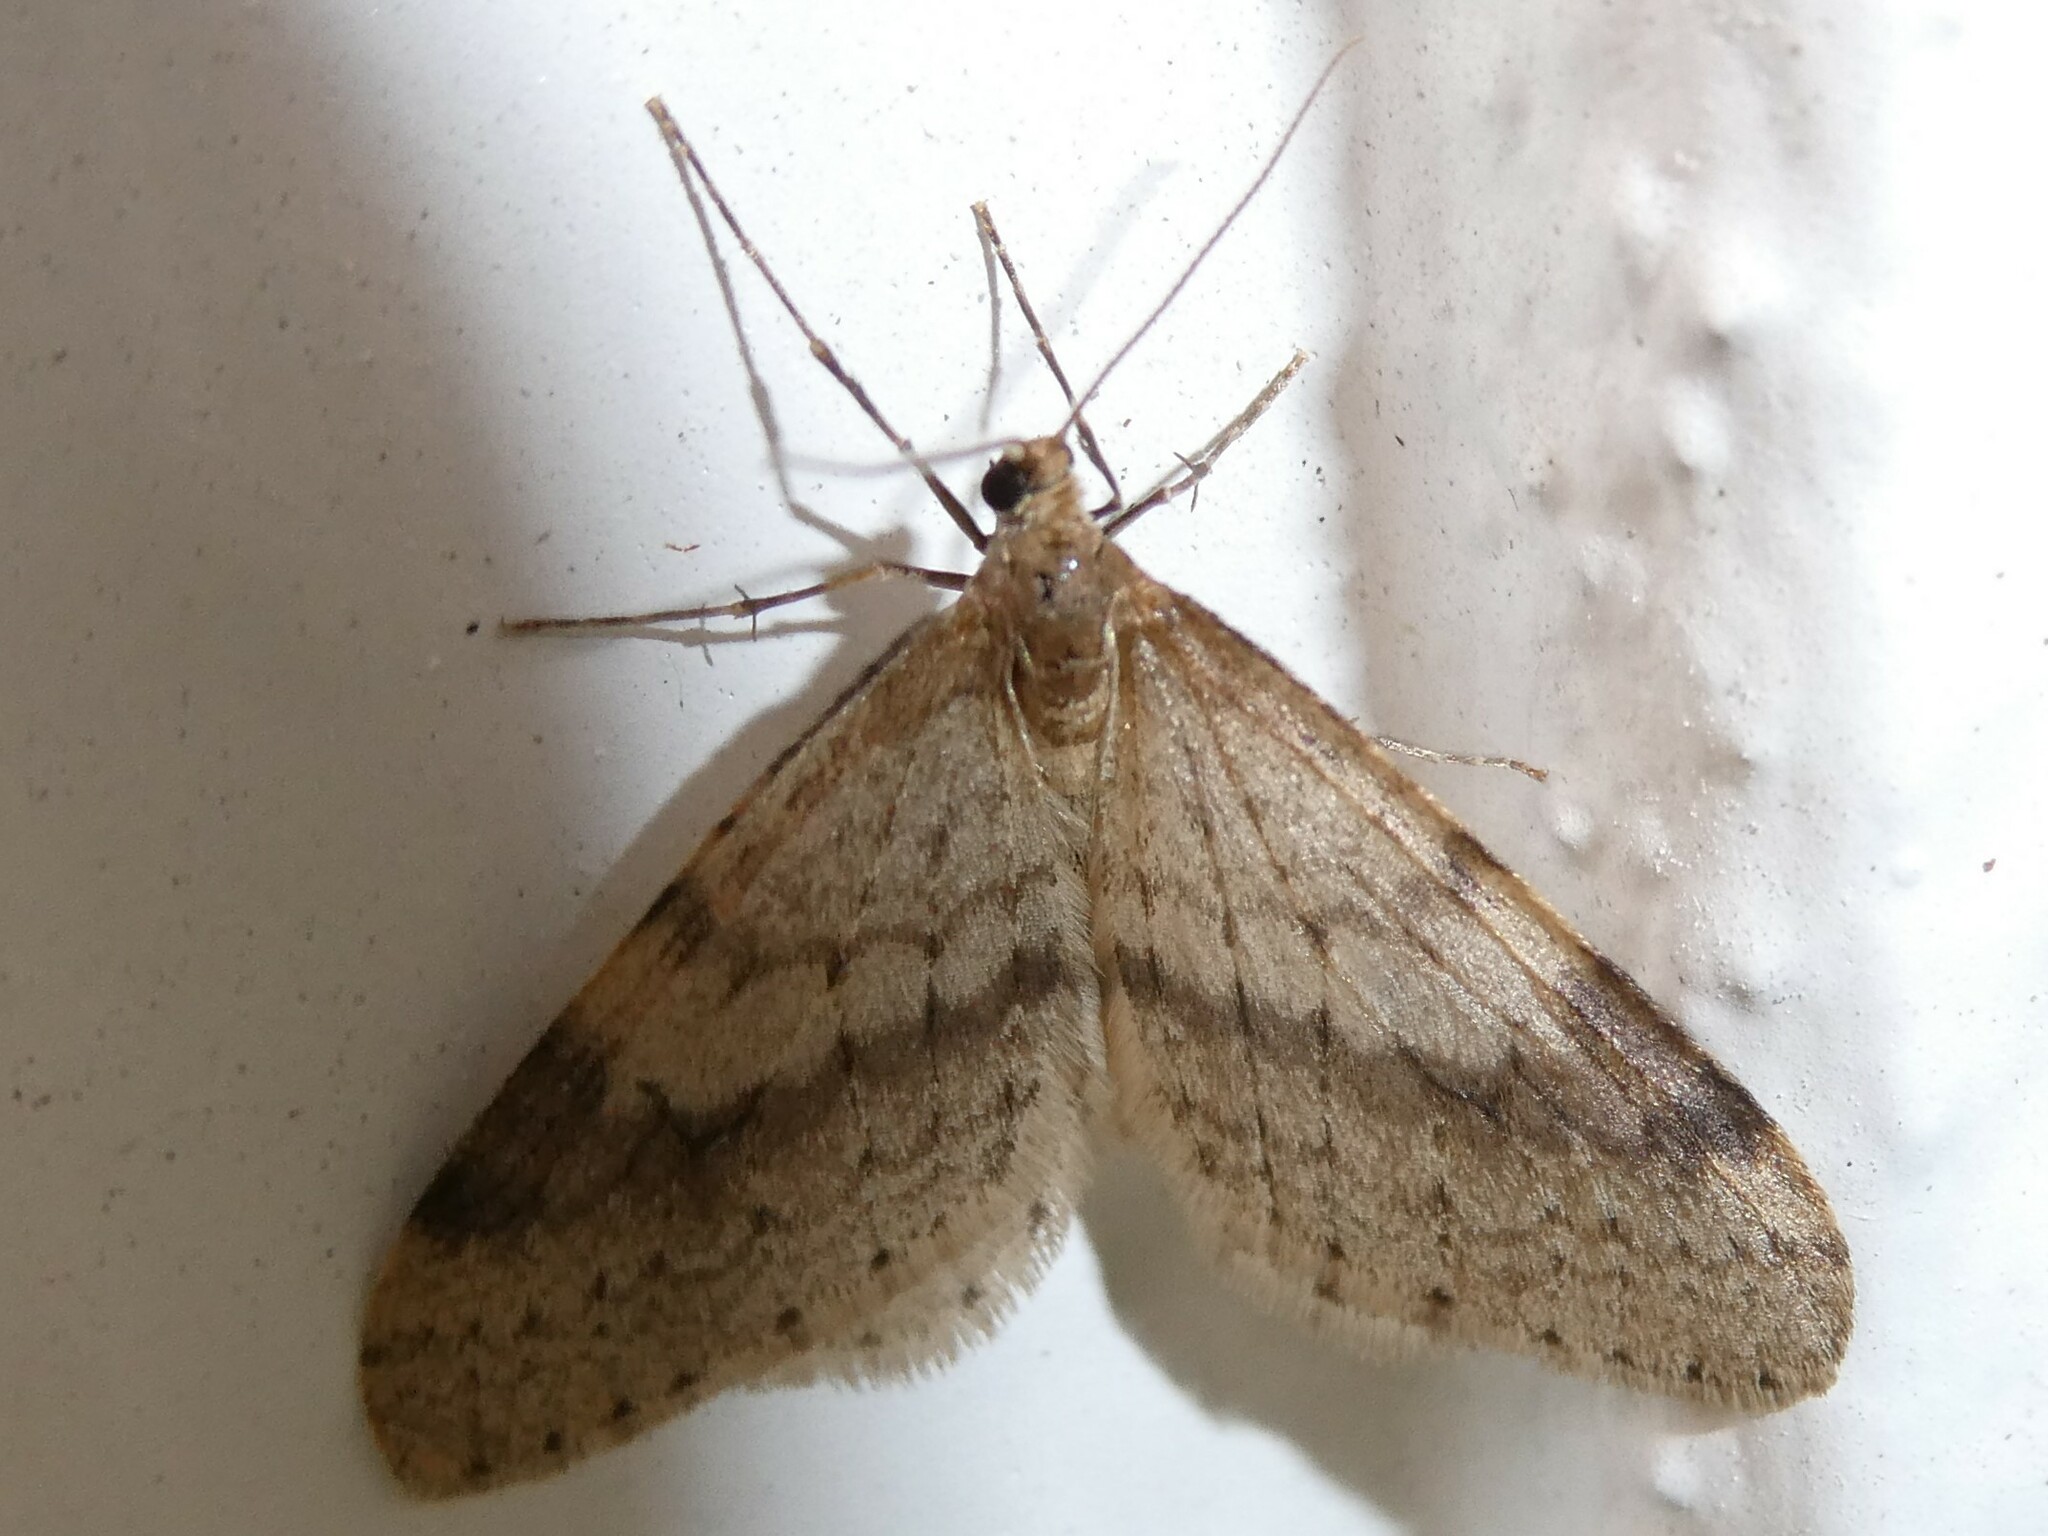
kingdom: Animalia
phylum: Arthropoda
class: Insecta
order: Lepidoptera
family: Geometridae
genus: Operophtera
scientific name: Operophtera bruceata
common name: Bruce spanworm
